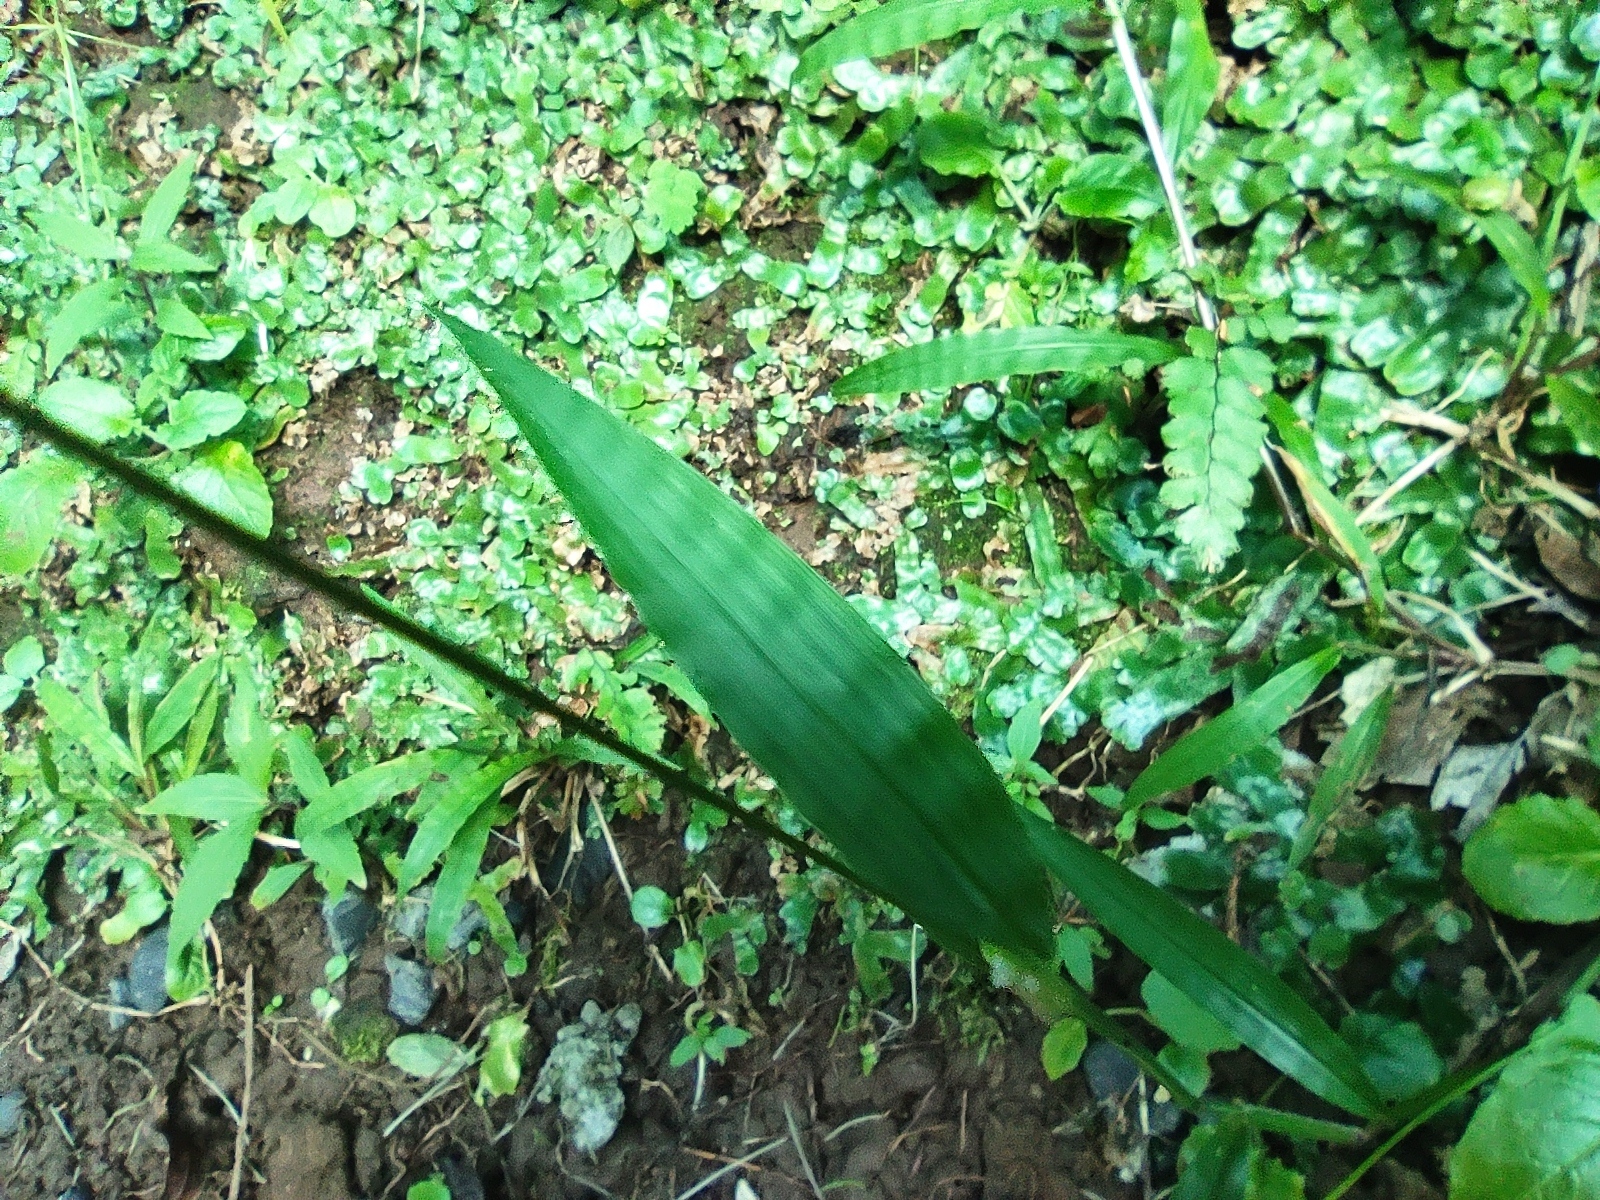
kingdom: Plantae
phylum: Tracheophyta
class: Liliopsida
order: Poales
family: Poaceae
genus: Paspalum
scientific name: Paspalum nutans
